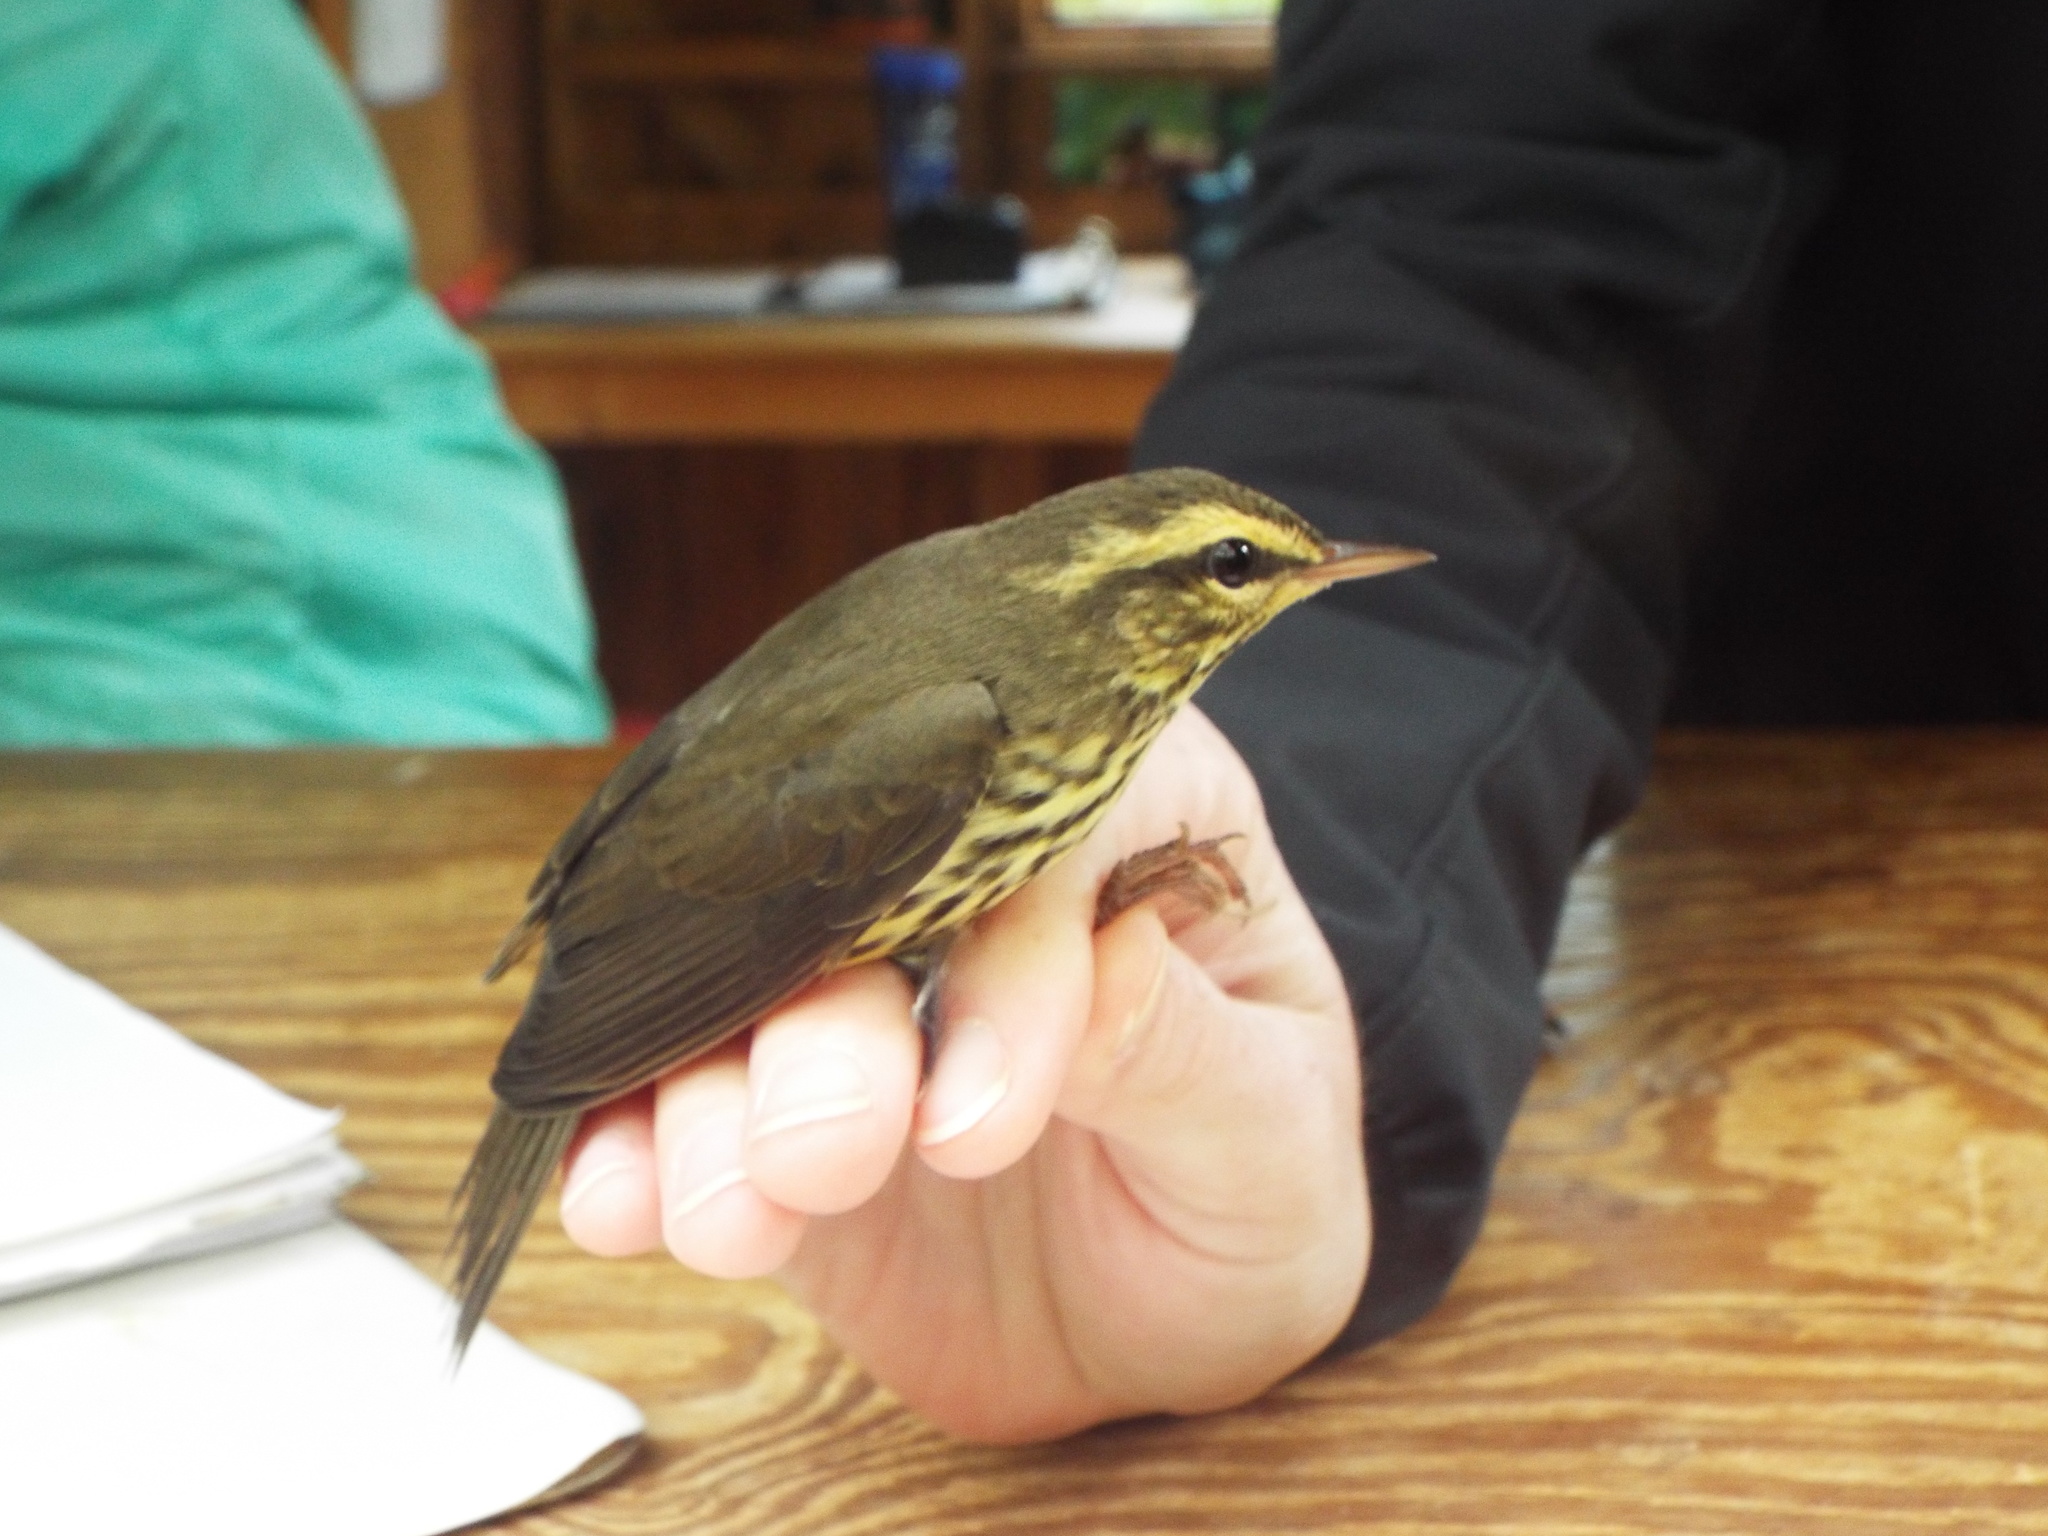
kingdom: Animalia
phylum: Chordata
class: Aves
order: Passeriformes
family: Parulidae
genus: Parkesia
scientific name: Parkesia noveboracensis
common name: Northern waterthrush
